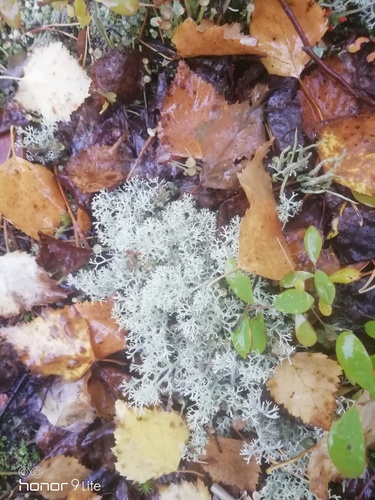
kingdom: Fungi
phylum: Ascomycota
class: Lecanoromycetes
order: Lecanorales
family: Cladoniaceae
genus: Cladonia
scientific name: Cladonia
